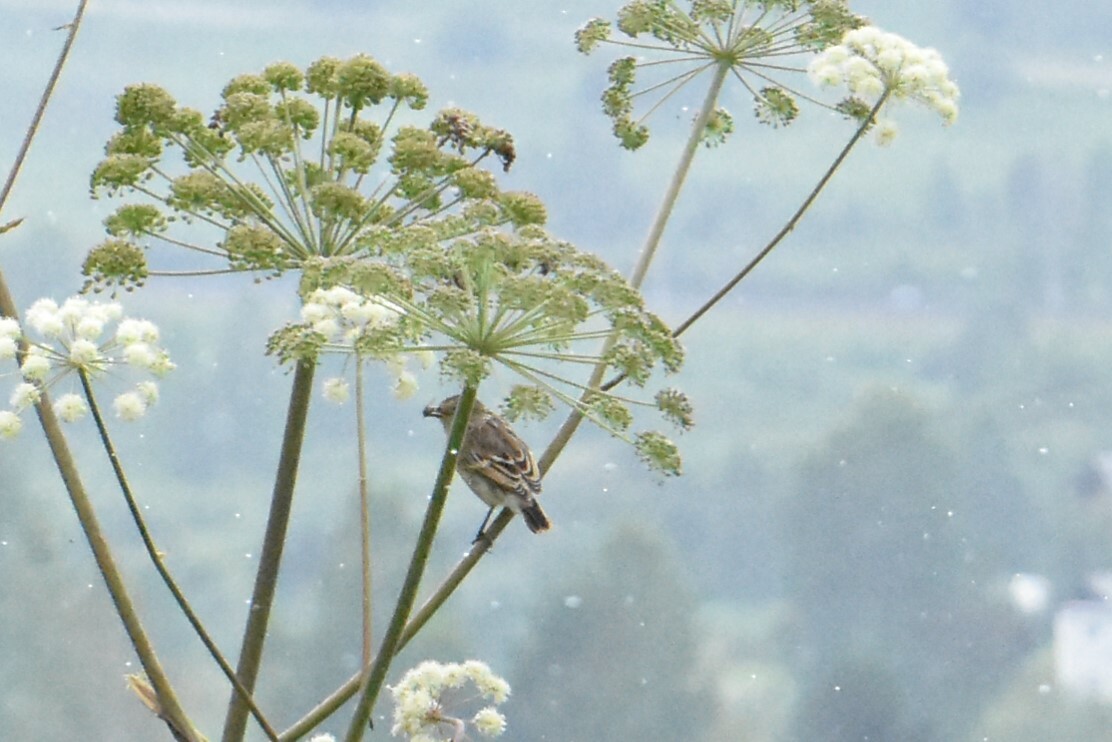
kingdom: Animalia
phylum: Chordata
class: Aves
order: Passeriformes
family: Muscicapidae
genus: Saxicola
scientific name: Saxicola maurus
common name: Siberian stonechat
